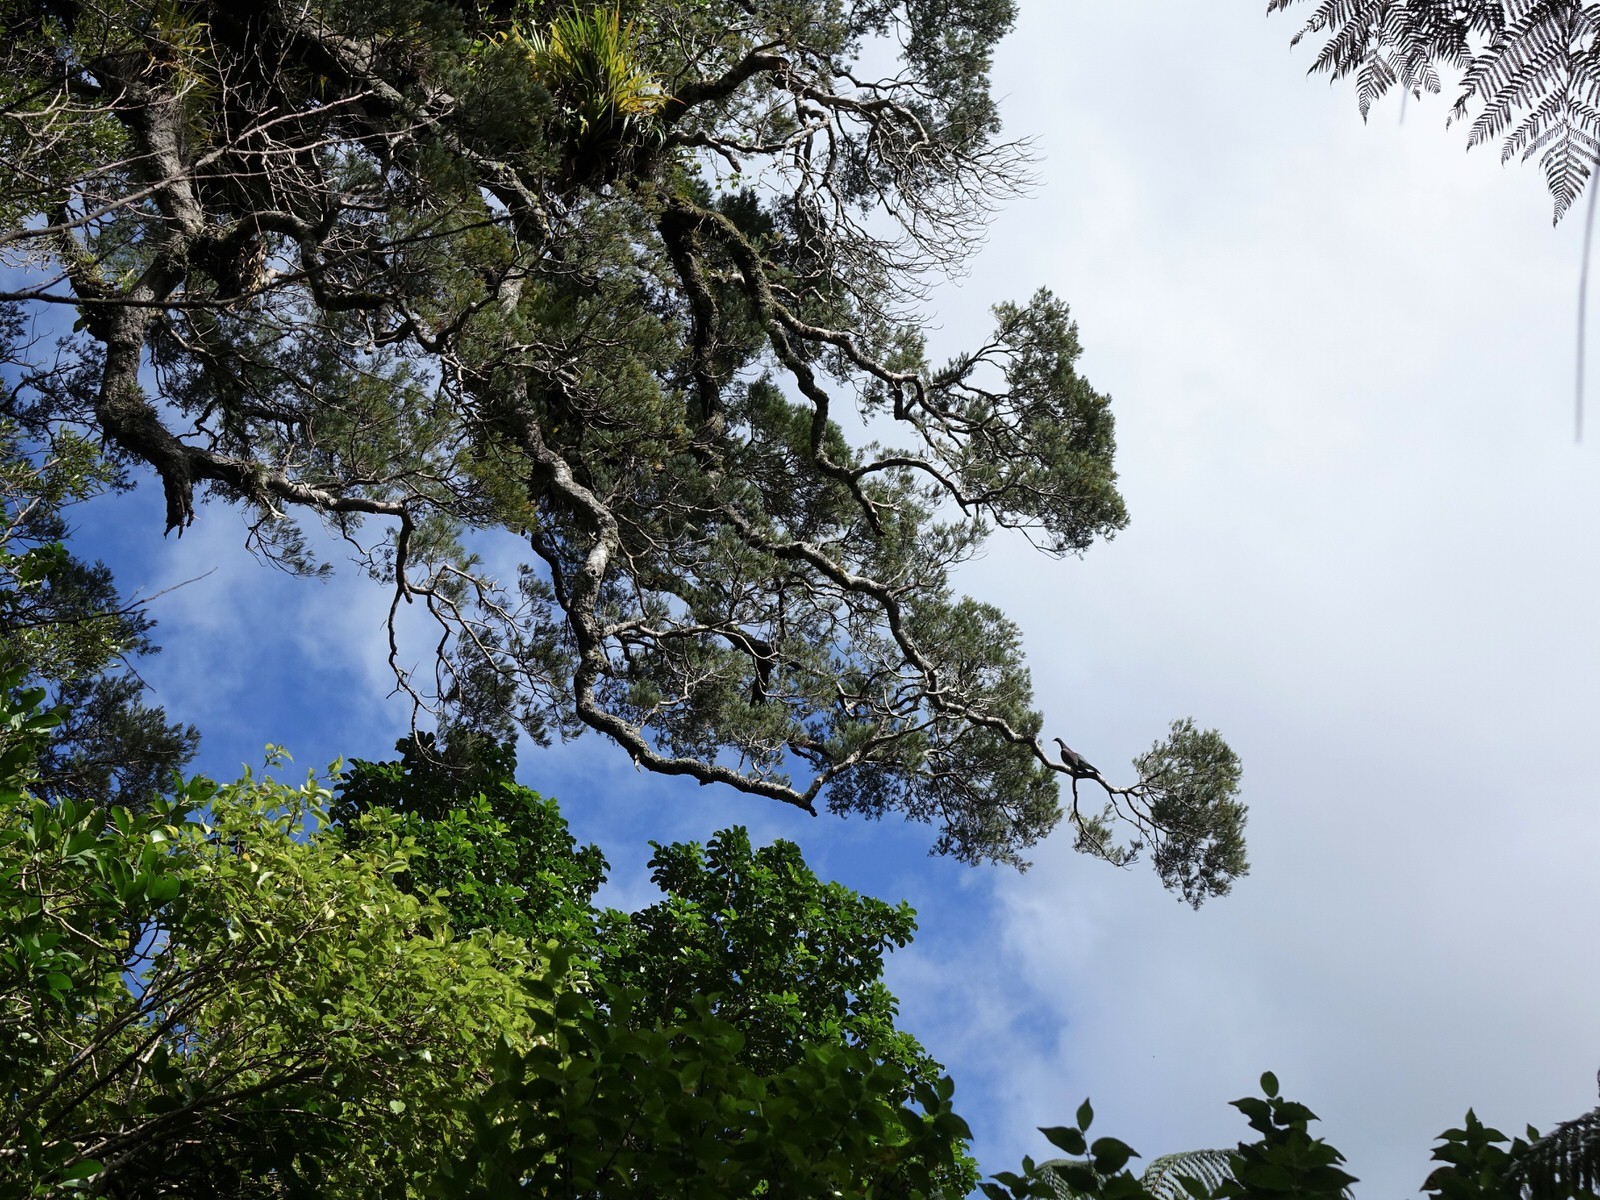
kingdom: Animalia
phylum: Chordata
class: Aves
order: Columbiformes
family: Columbidae
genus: Hemiphaga
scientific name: Hemiphaga novaeseelandiae
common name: New zealand pigeon
